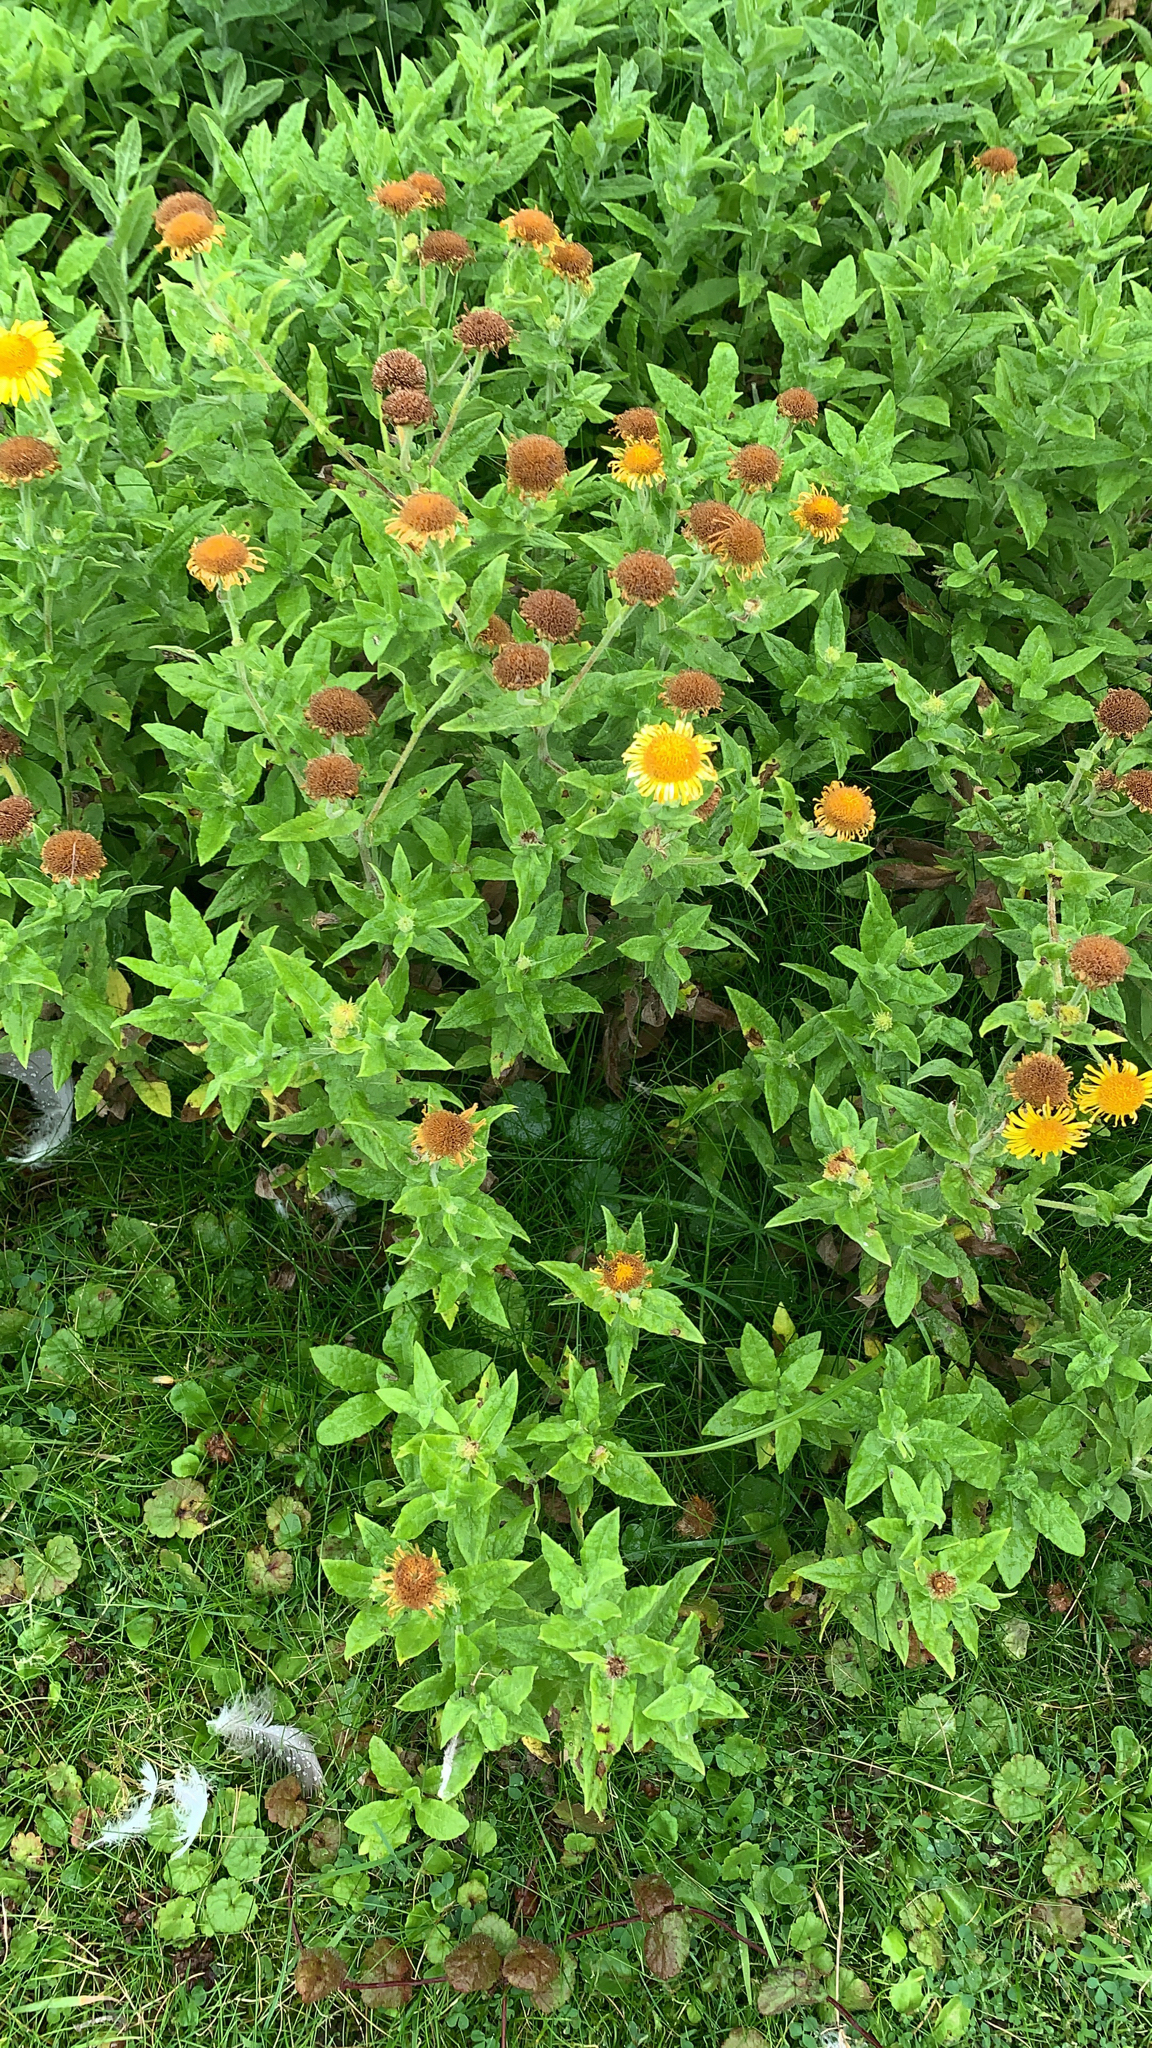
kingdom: Plantae
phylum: Tracheophyta
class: Magnoliopsida
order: Asterales
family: Asteraceae
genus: Pulicaria
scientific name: Pulicaria dysenterica
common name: Common fleabane
